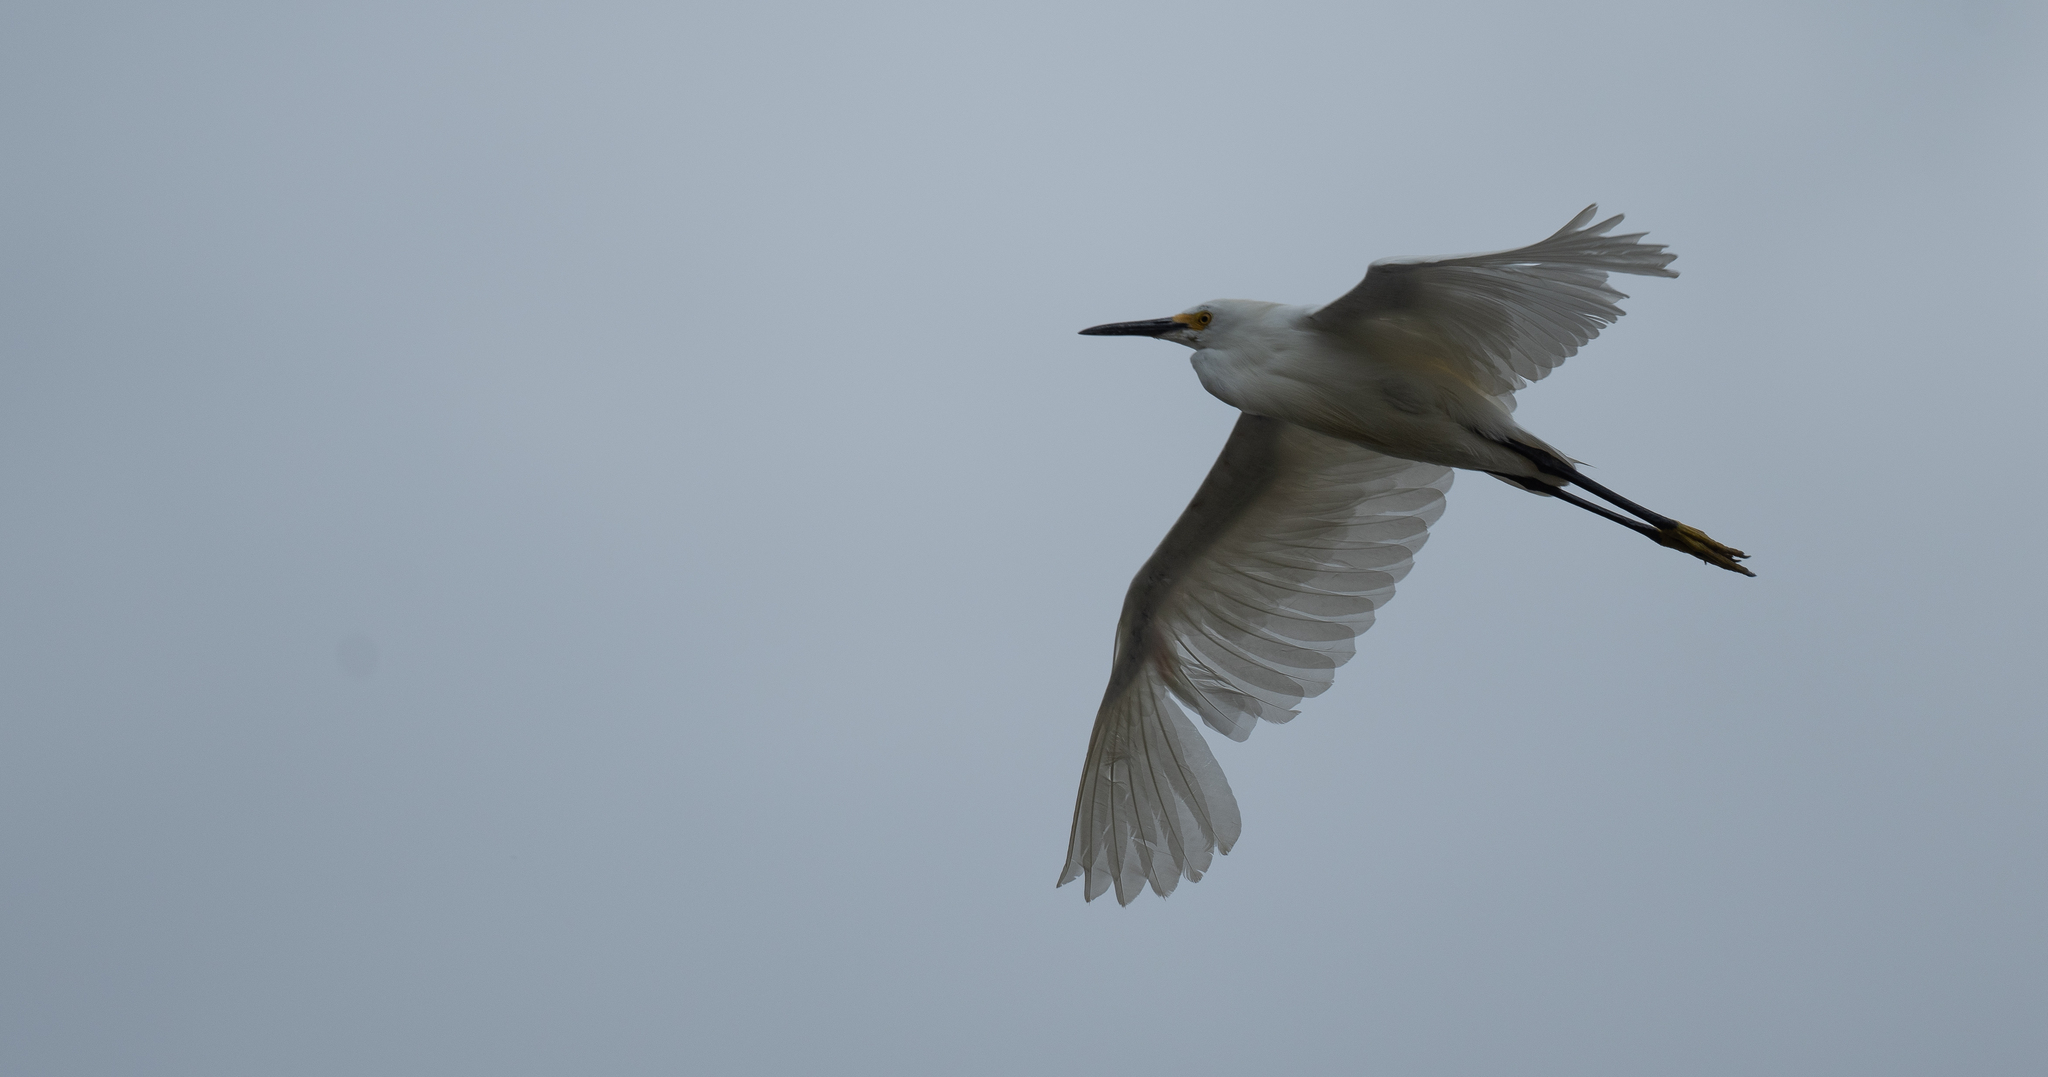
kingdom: Animalia
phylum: Chordata
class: Aves
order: Pelecaniformes
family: Ardeidae
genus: Egretta
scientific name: Egretta thula
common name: Snowy egret
